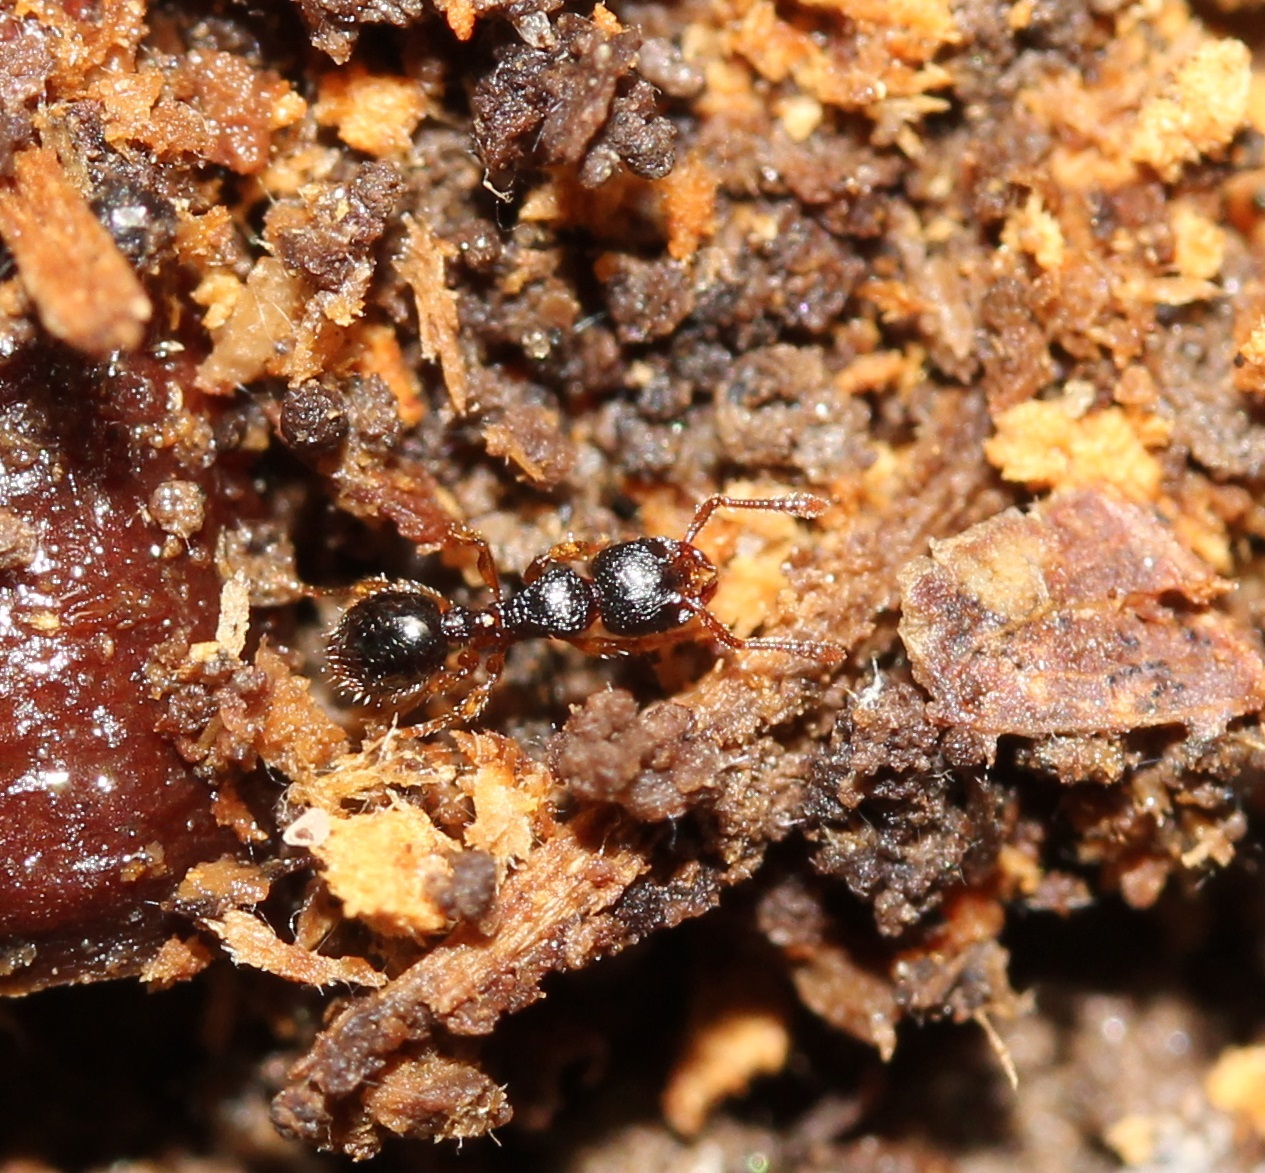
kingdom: Animalia
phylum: Arthropoda
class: Insecta
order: Hymenoptera
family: Formicidae
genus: Myrmecina
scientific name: Myrmecina americana
